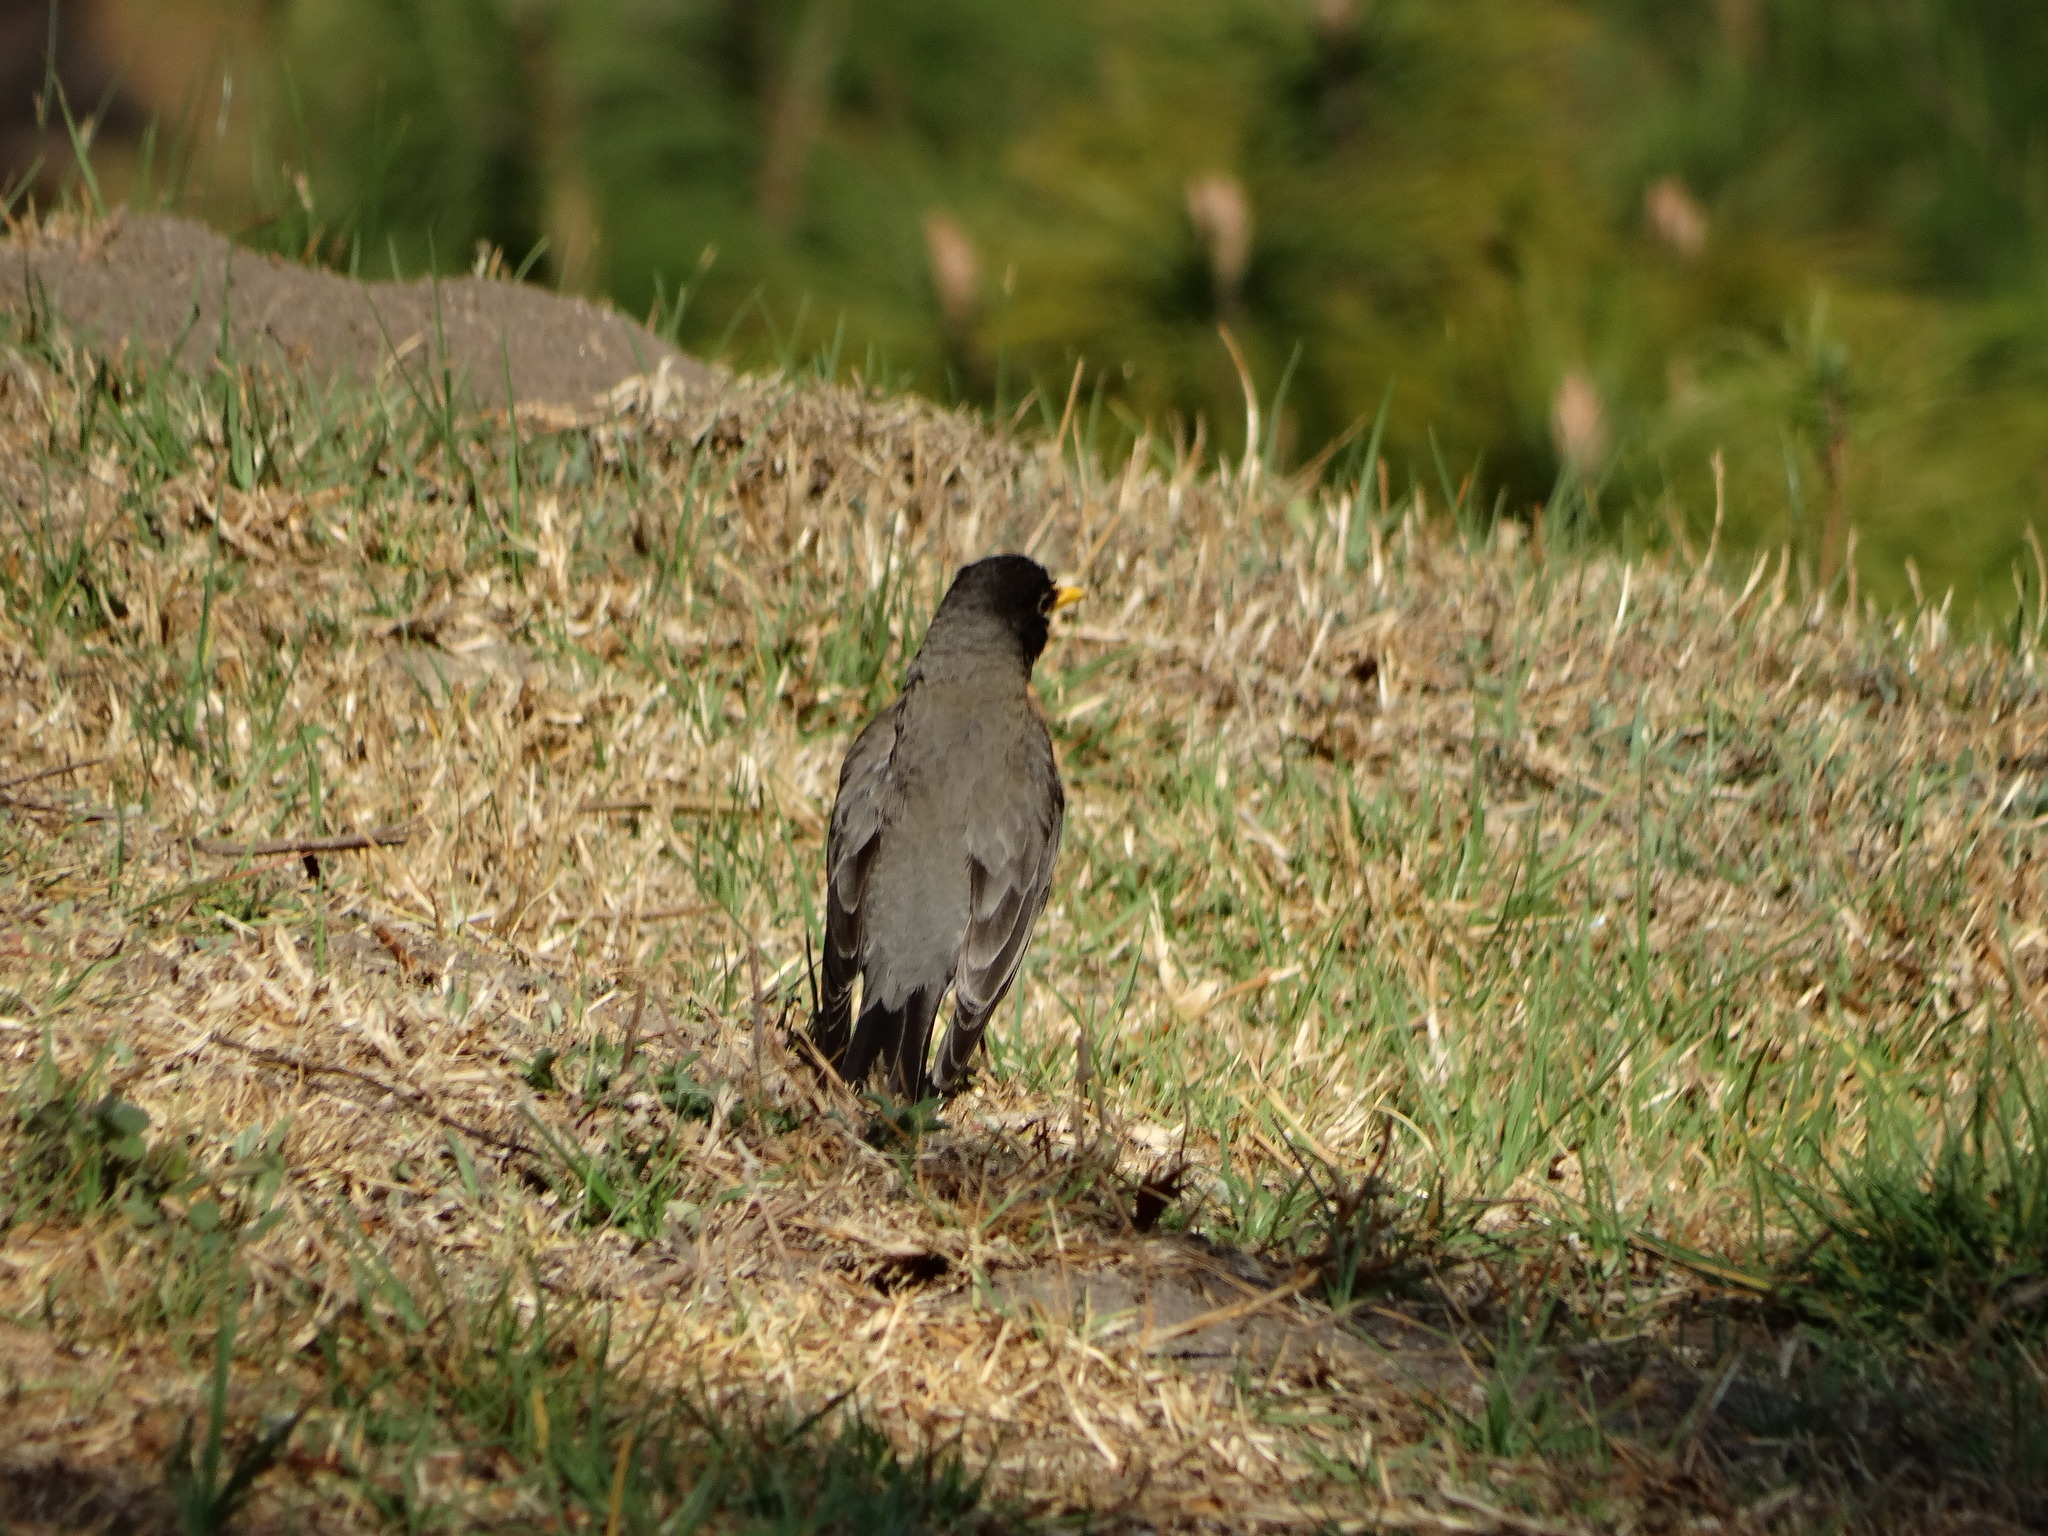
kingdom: Animalia
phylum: Chordata
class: Aves
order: Passeriformes
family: Turdidae
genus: Turdus
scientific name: Turdus migratorius
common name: American robin
